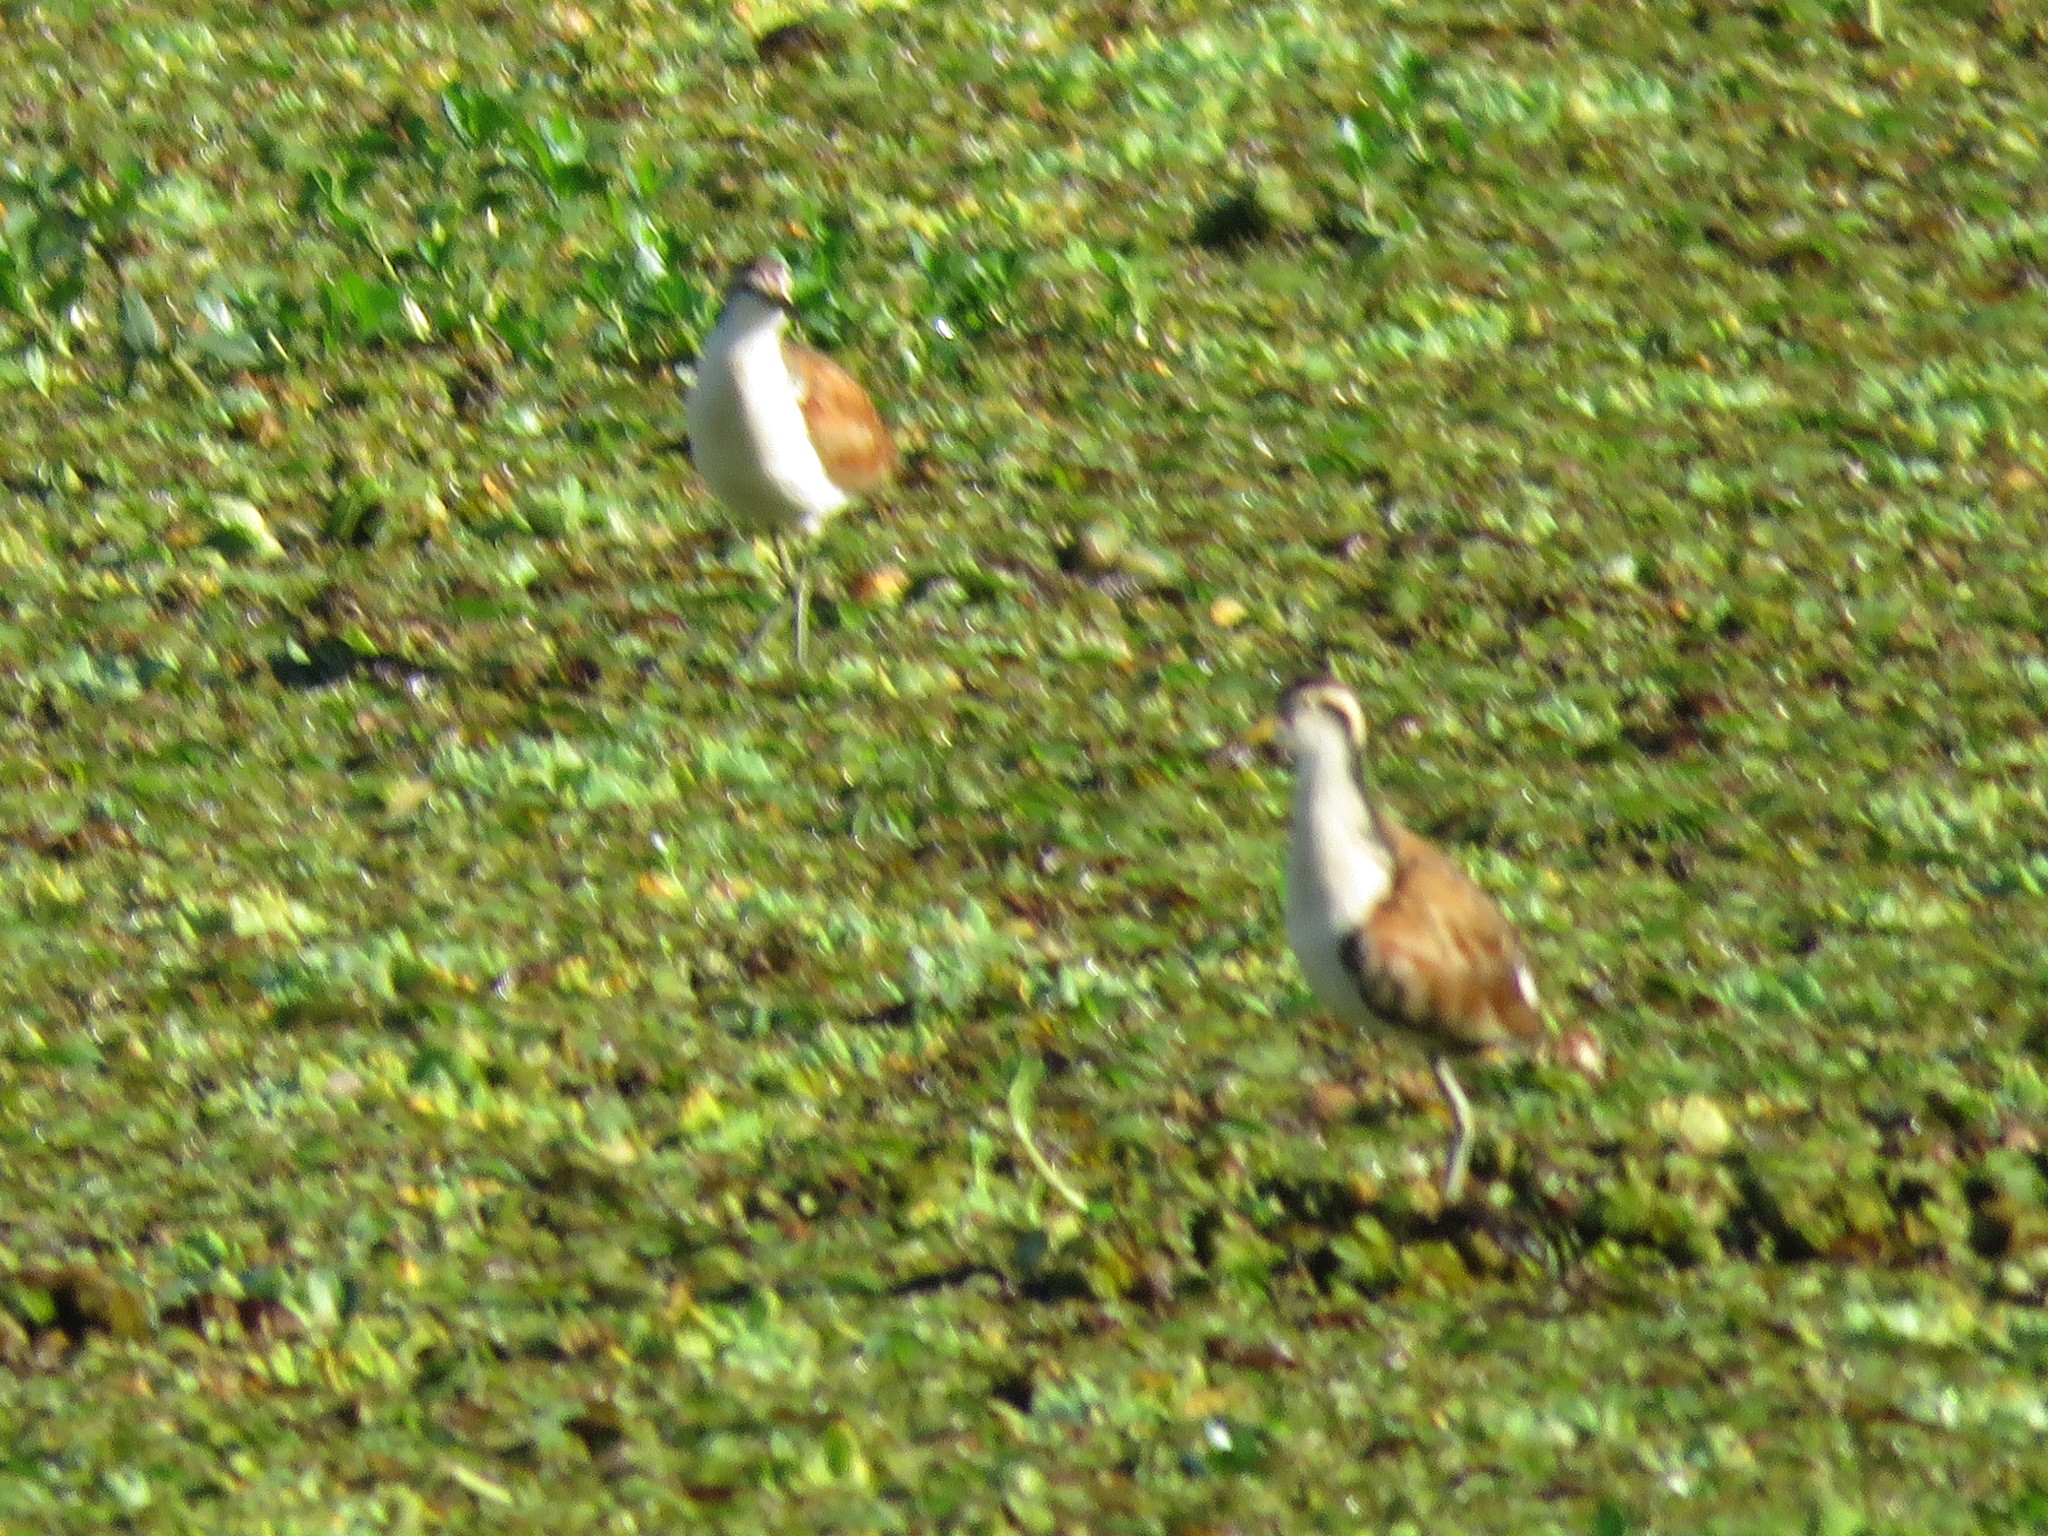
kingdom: Animalia
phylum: Chordata
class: Aves
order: Charadriiformes
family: Jacanidae
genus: Jacana
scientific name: Jacana jacana
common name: Wattled jacana
